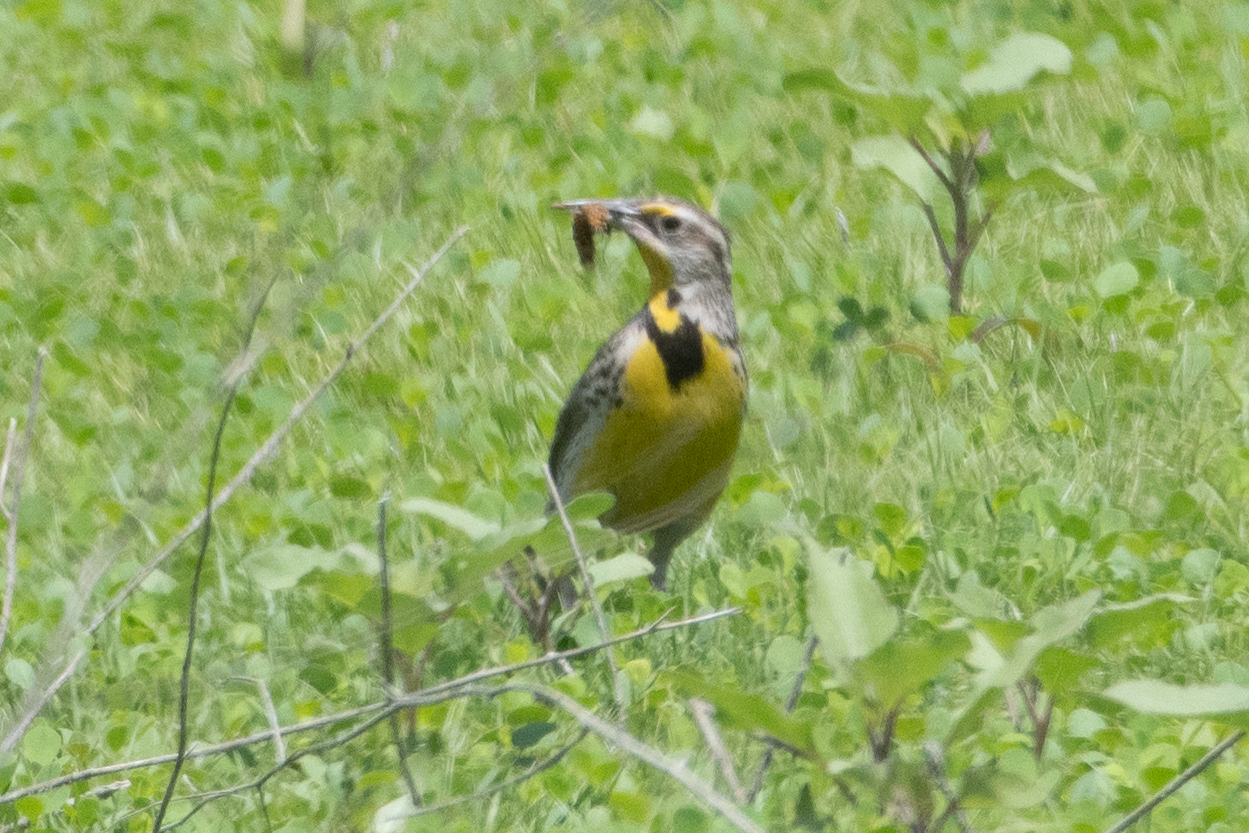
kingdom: Animalia
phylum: Chordata
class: Aves
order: Passeriformes
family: Icteridae
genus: Sturnella
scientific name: Sturnella neglecta
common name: Western meadowlark
